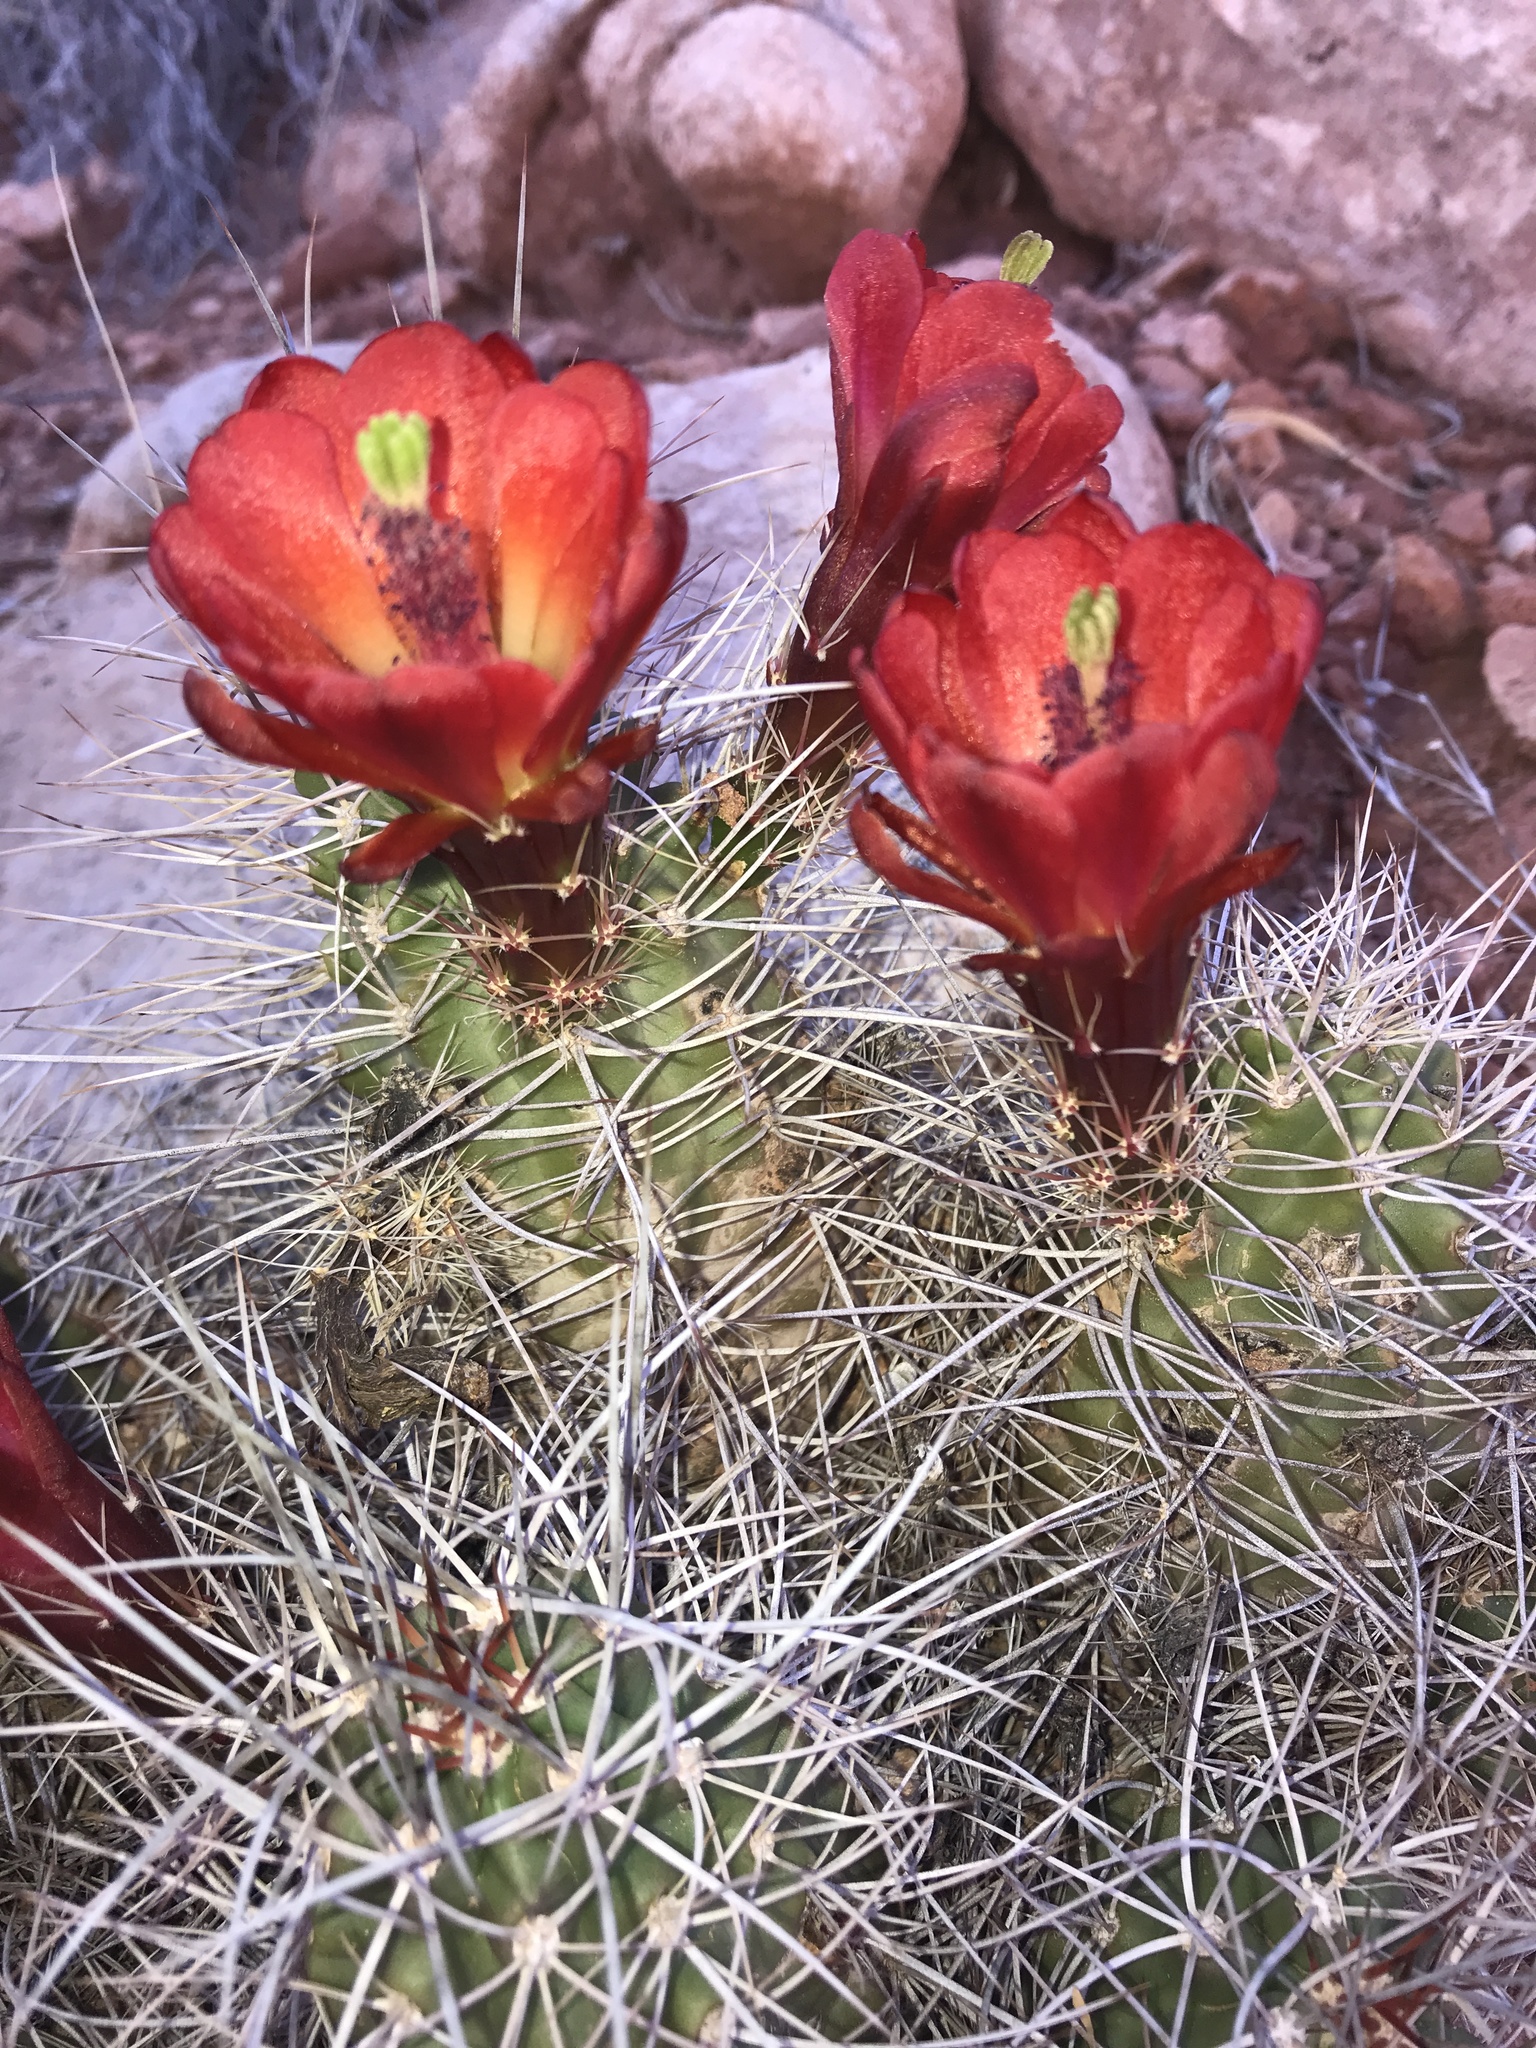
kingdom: Plantae
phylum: Tracheophyta
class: Magnoliopsida
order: Caryophyllales
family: Cactaceae
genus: Echinocereus
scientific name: Echinocereus triglochidiatus
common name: Claretcup hedgehog
